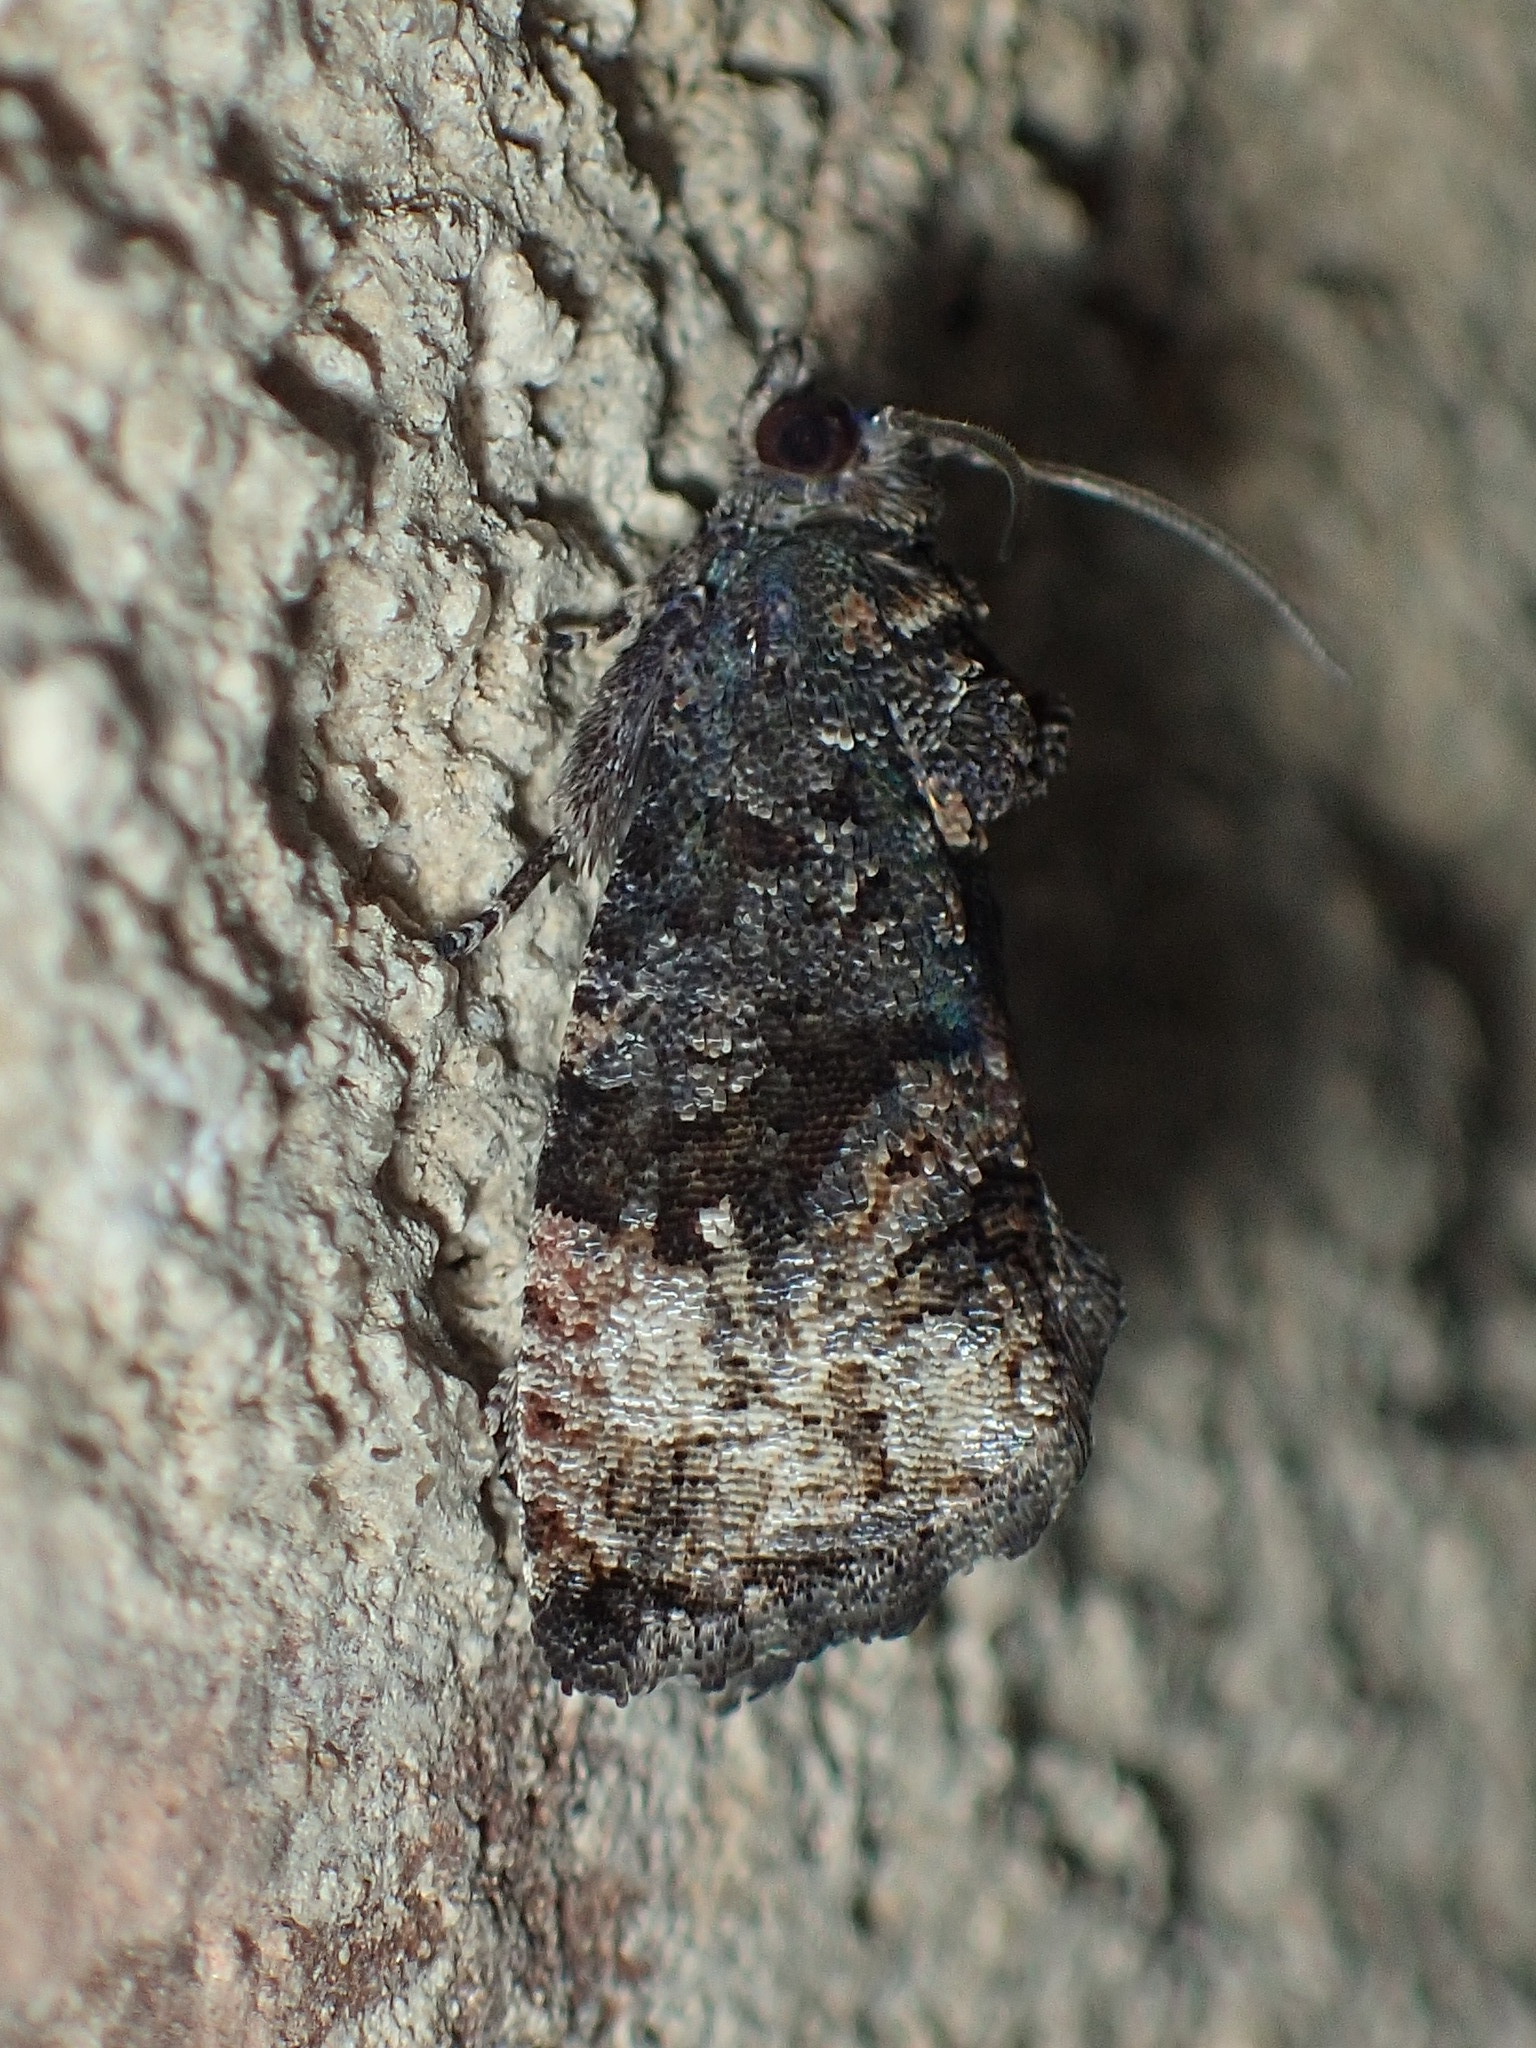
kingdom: Animalia
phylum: Arthropoda
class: Insecta
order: Lepidoptera
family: Tortricidae
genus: Gymnandrosoma
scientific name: Gymnandrosoma punctidiscanum
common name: Dotted ecdytolopha moth
